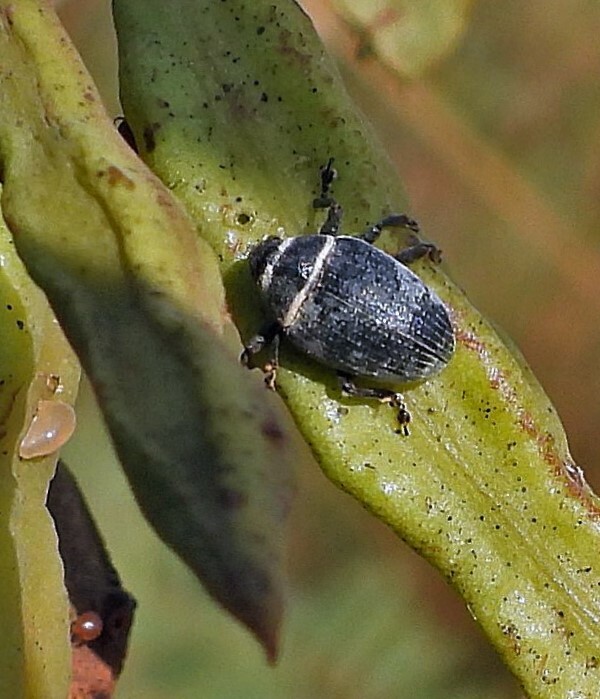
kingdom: Animalia
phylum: Arthropoda
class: Insecta
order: Coleoptera
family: Curculionidae
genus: Rhyssomatus
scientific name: Rhyssomatus marginatus
